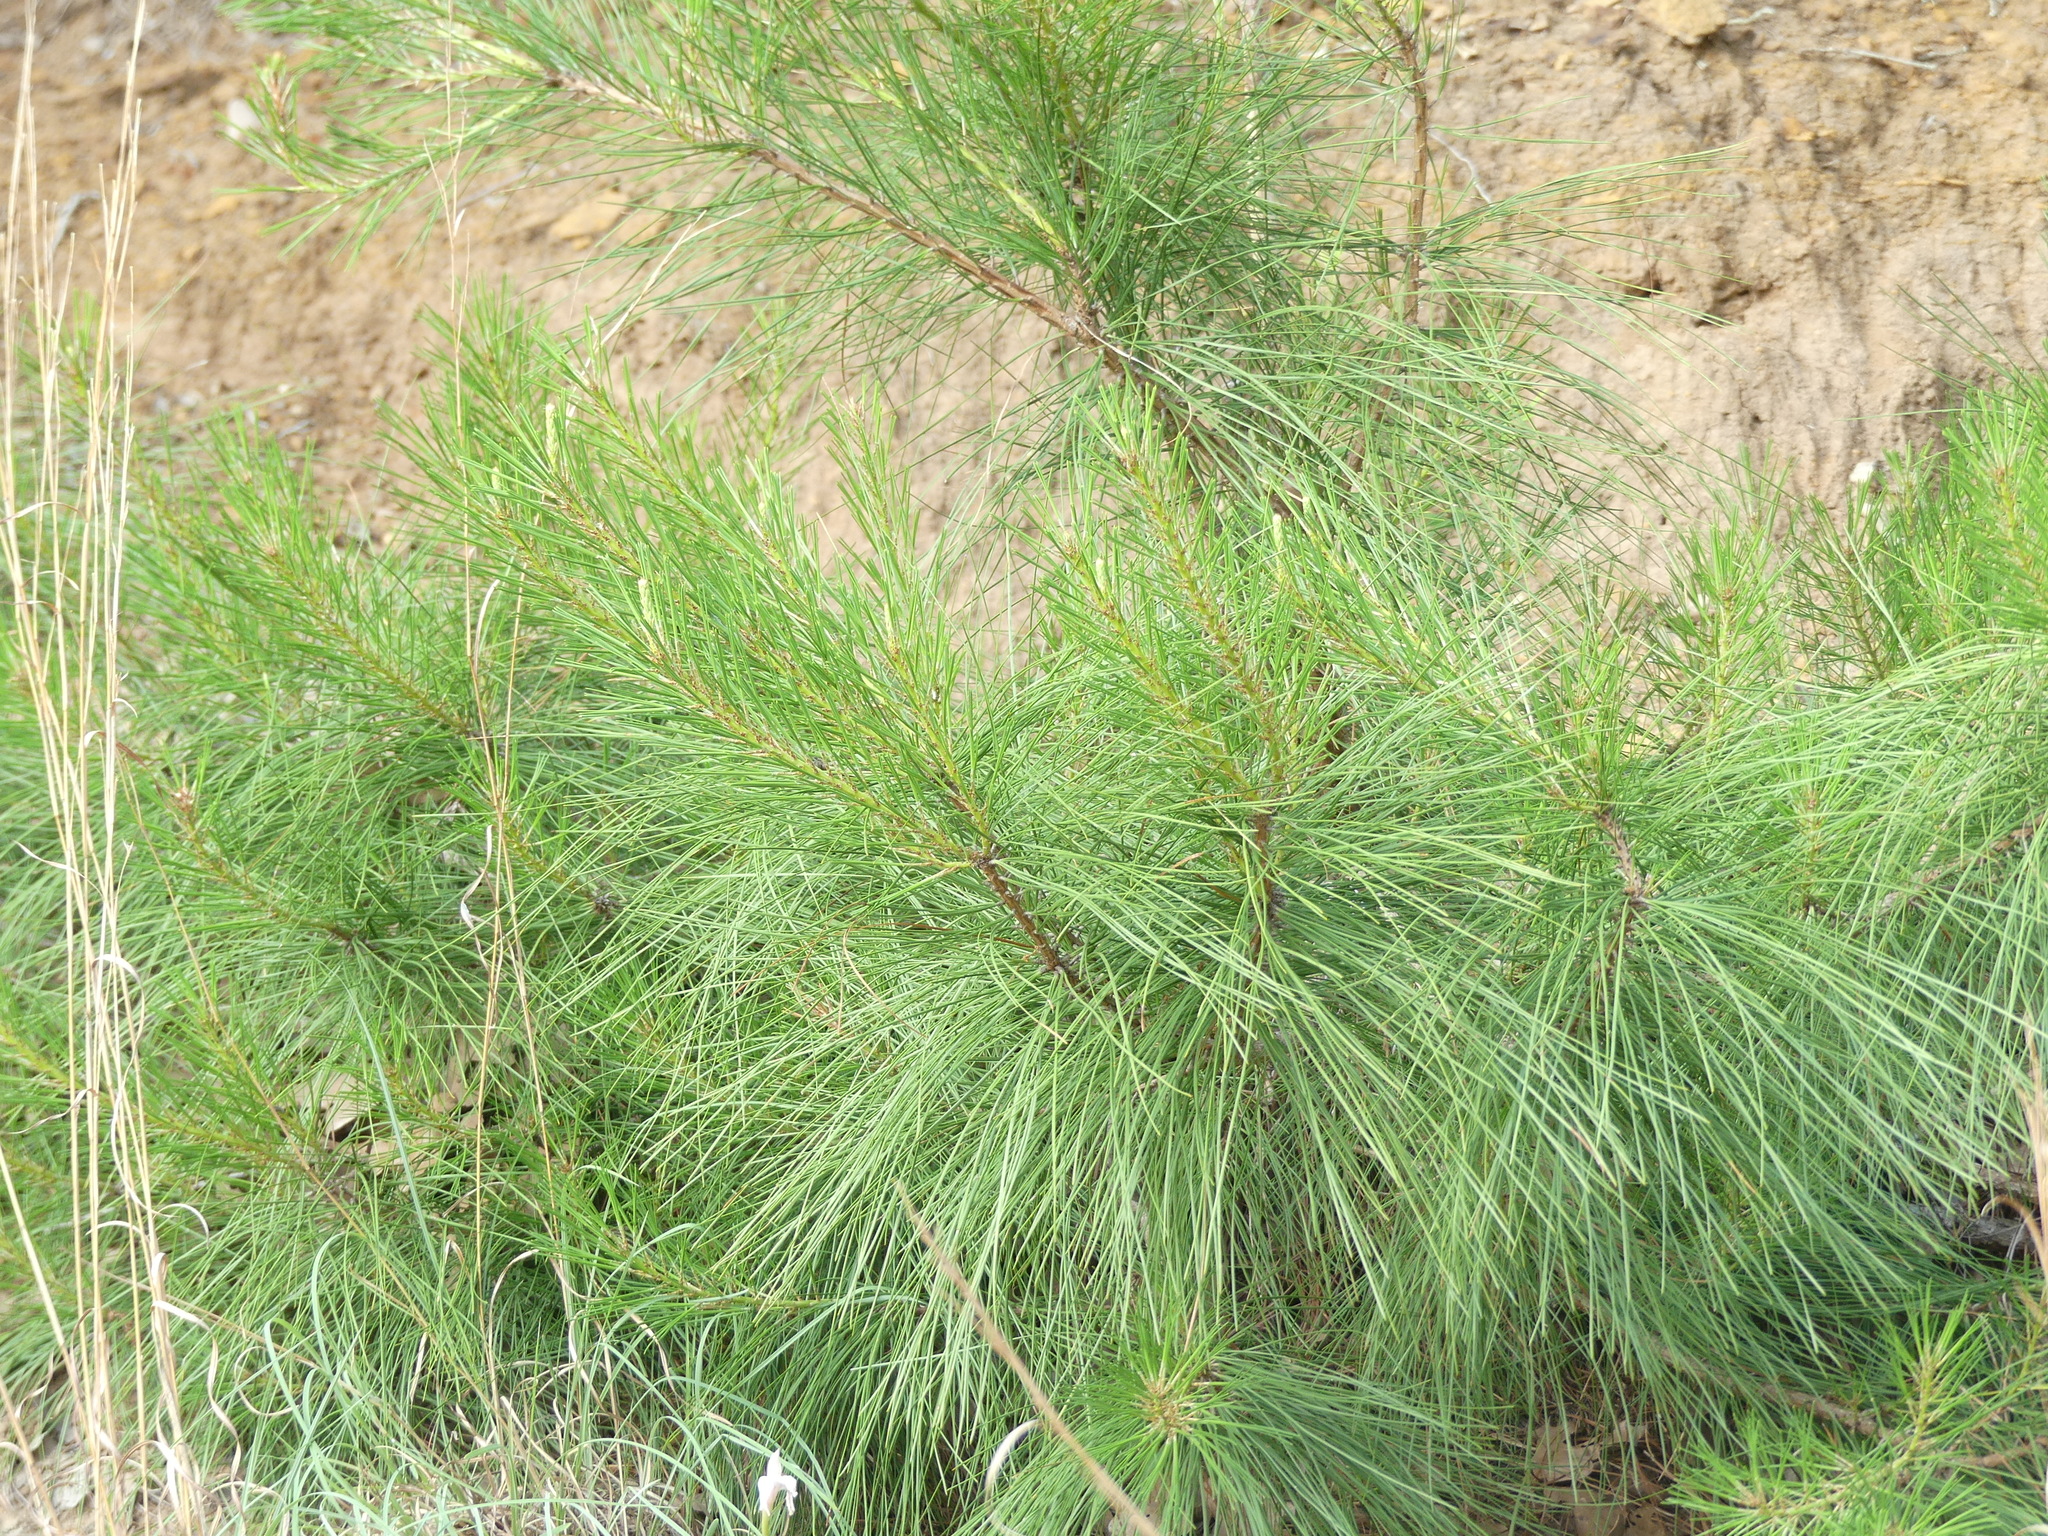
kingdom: Plantae
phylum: Tracheophyta
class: Pinopsida
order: Pinales
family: Pinaceae
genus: Pinus
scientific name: Pinus taeda
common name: Loblolly pine
